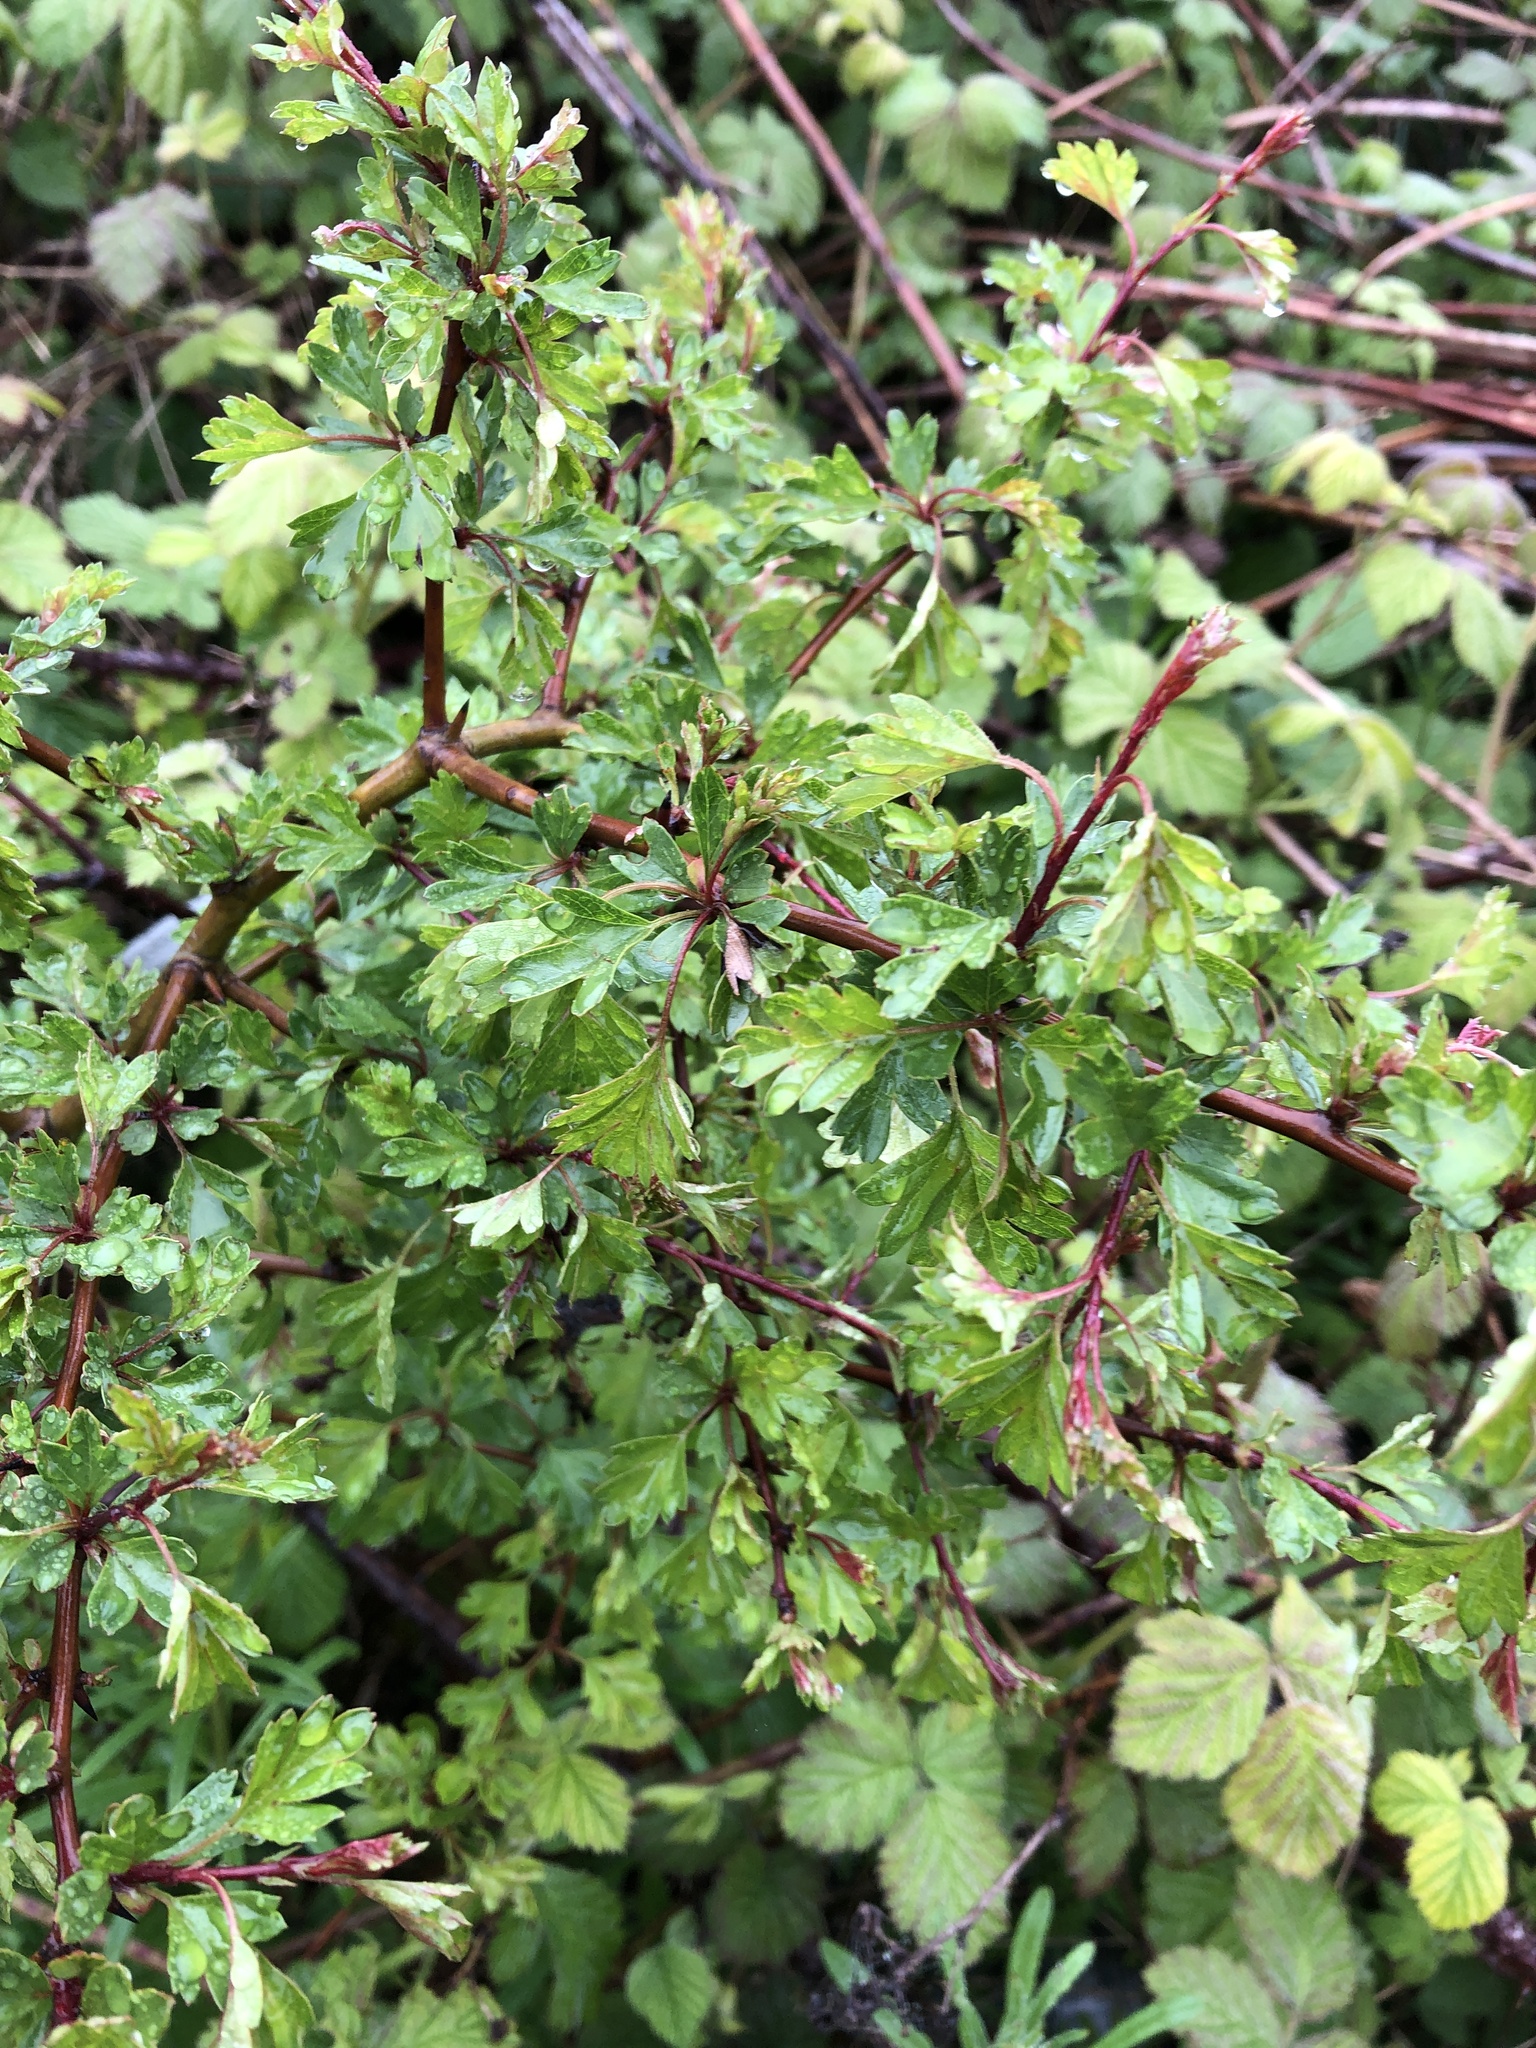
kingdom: Plantae
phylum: Tracheophyta
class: Magnoliopsida
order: Rosales
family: Rosaceae
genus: Crataegus
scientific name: Crataegus monogyna
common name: Hawthorn
